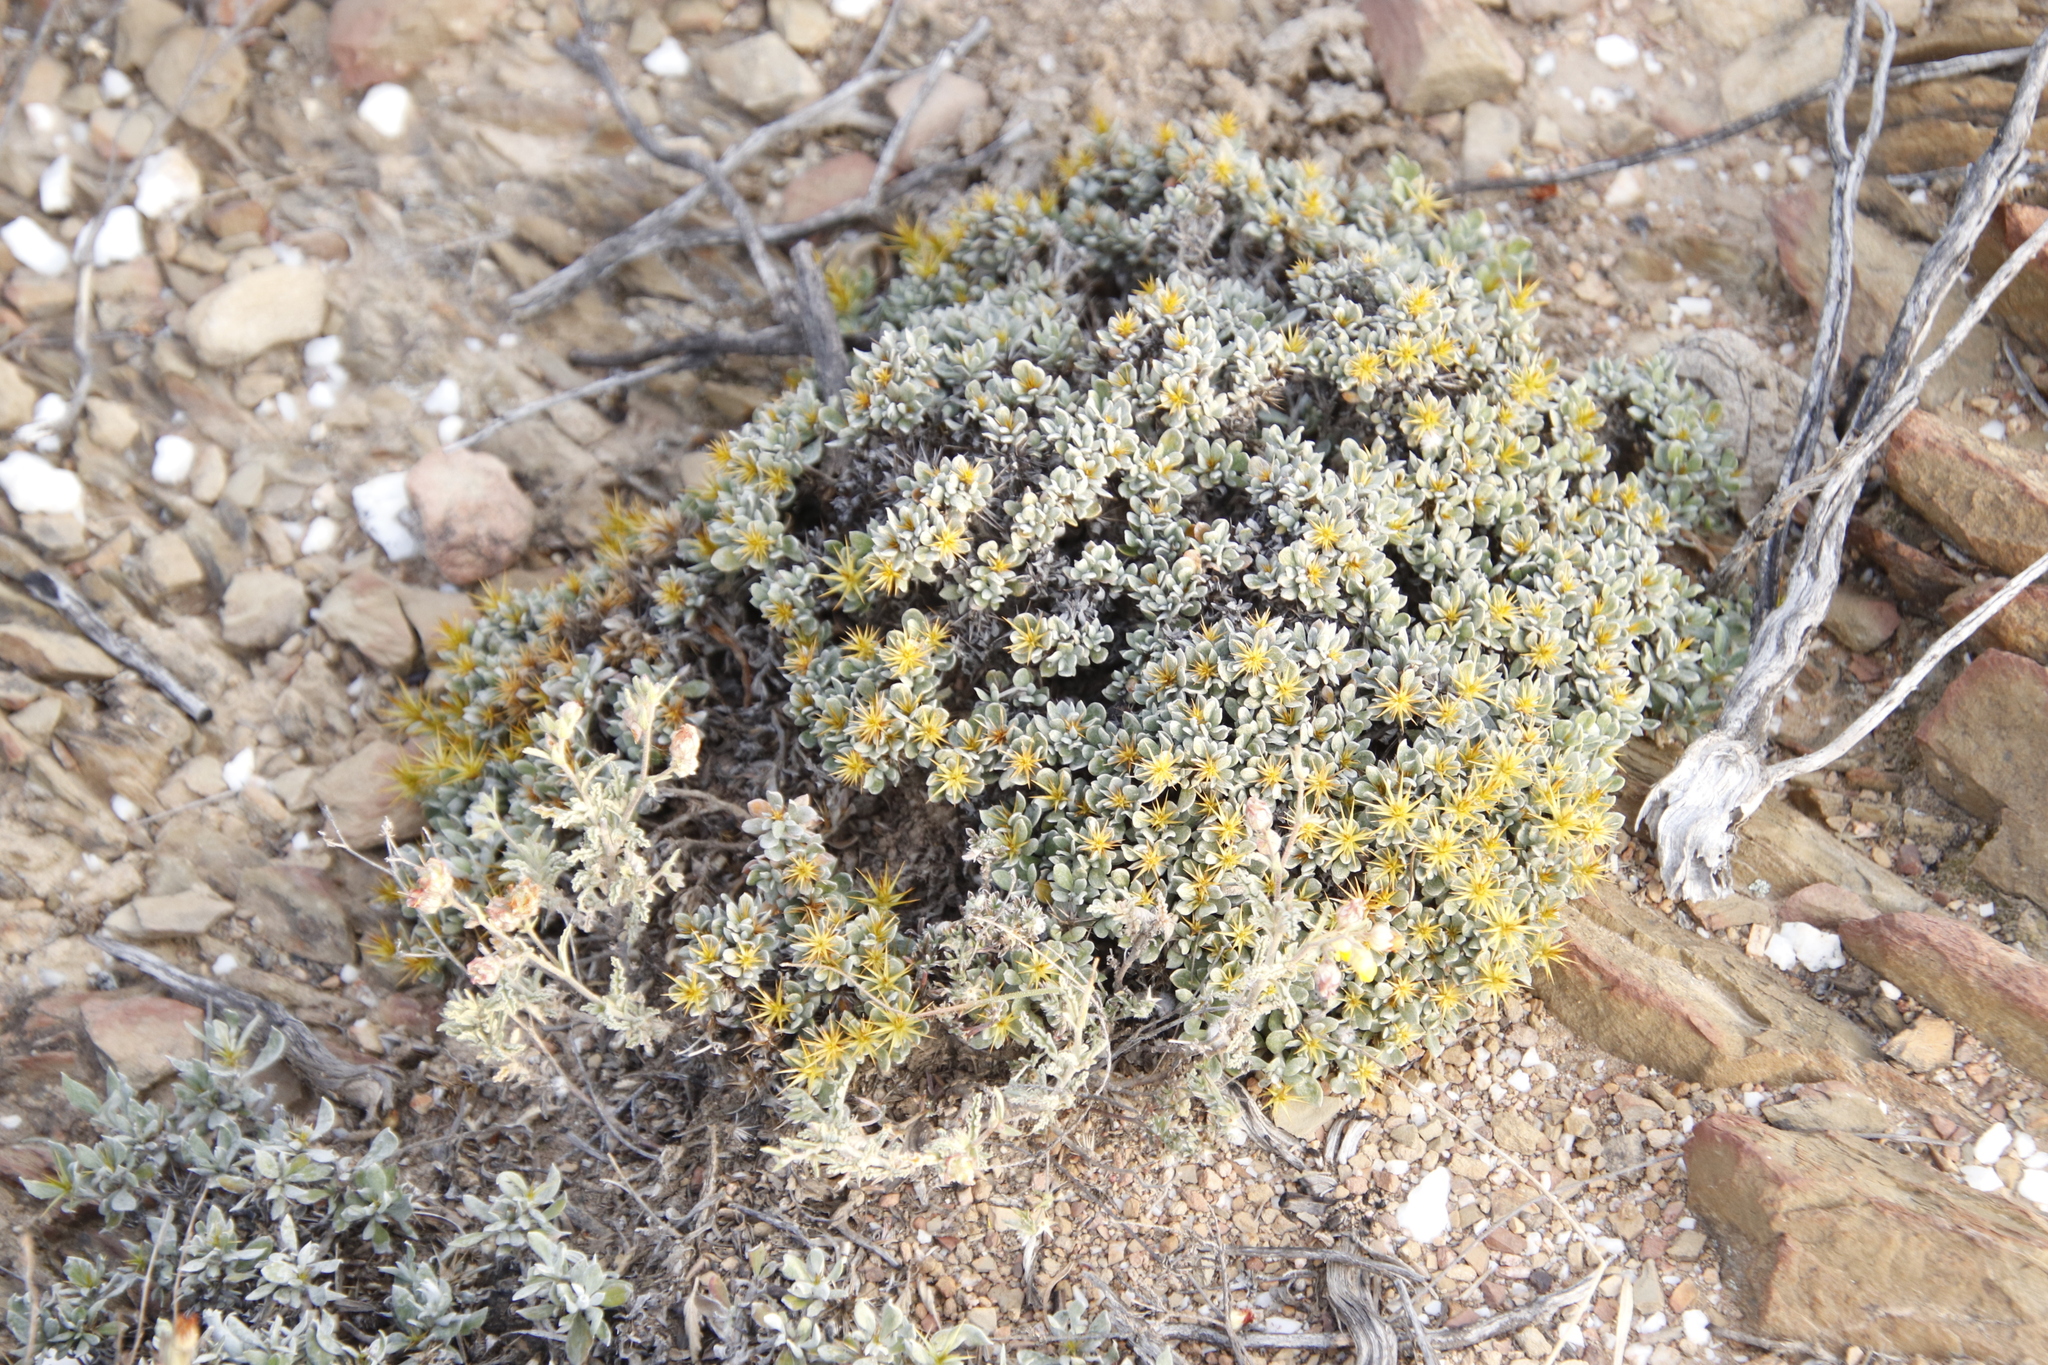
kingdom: Plantae
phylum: Tracheophyta
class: Magnoliopsida
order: Asterales
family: Asteraceae
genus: Macledium
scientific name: Macledium spinosum
